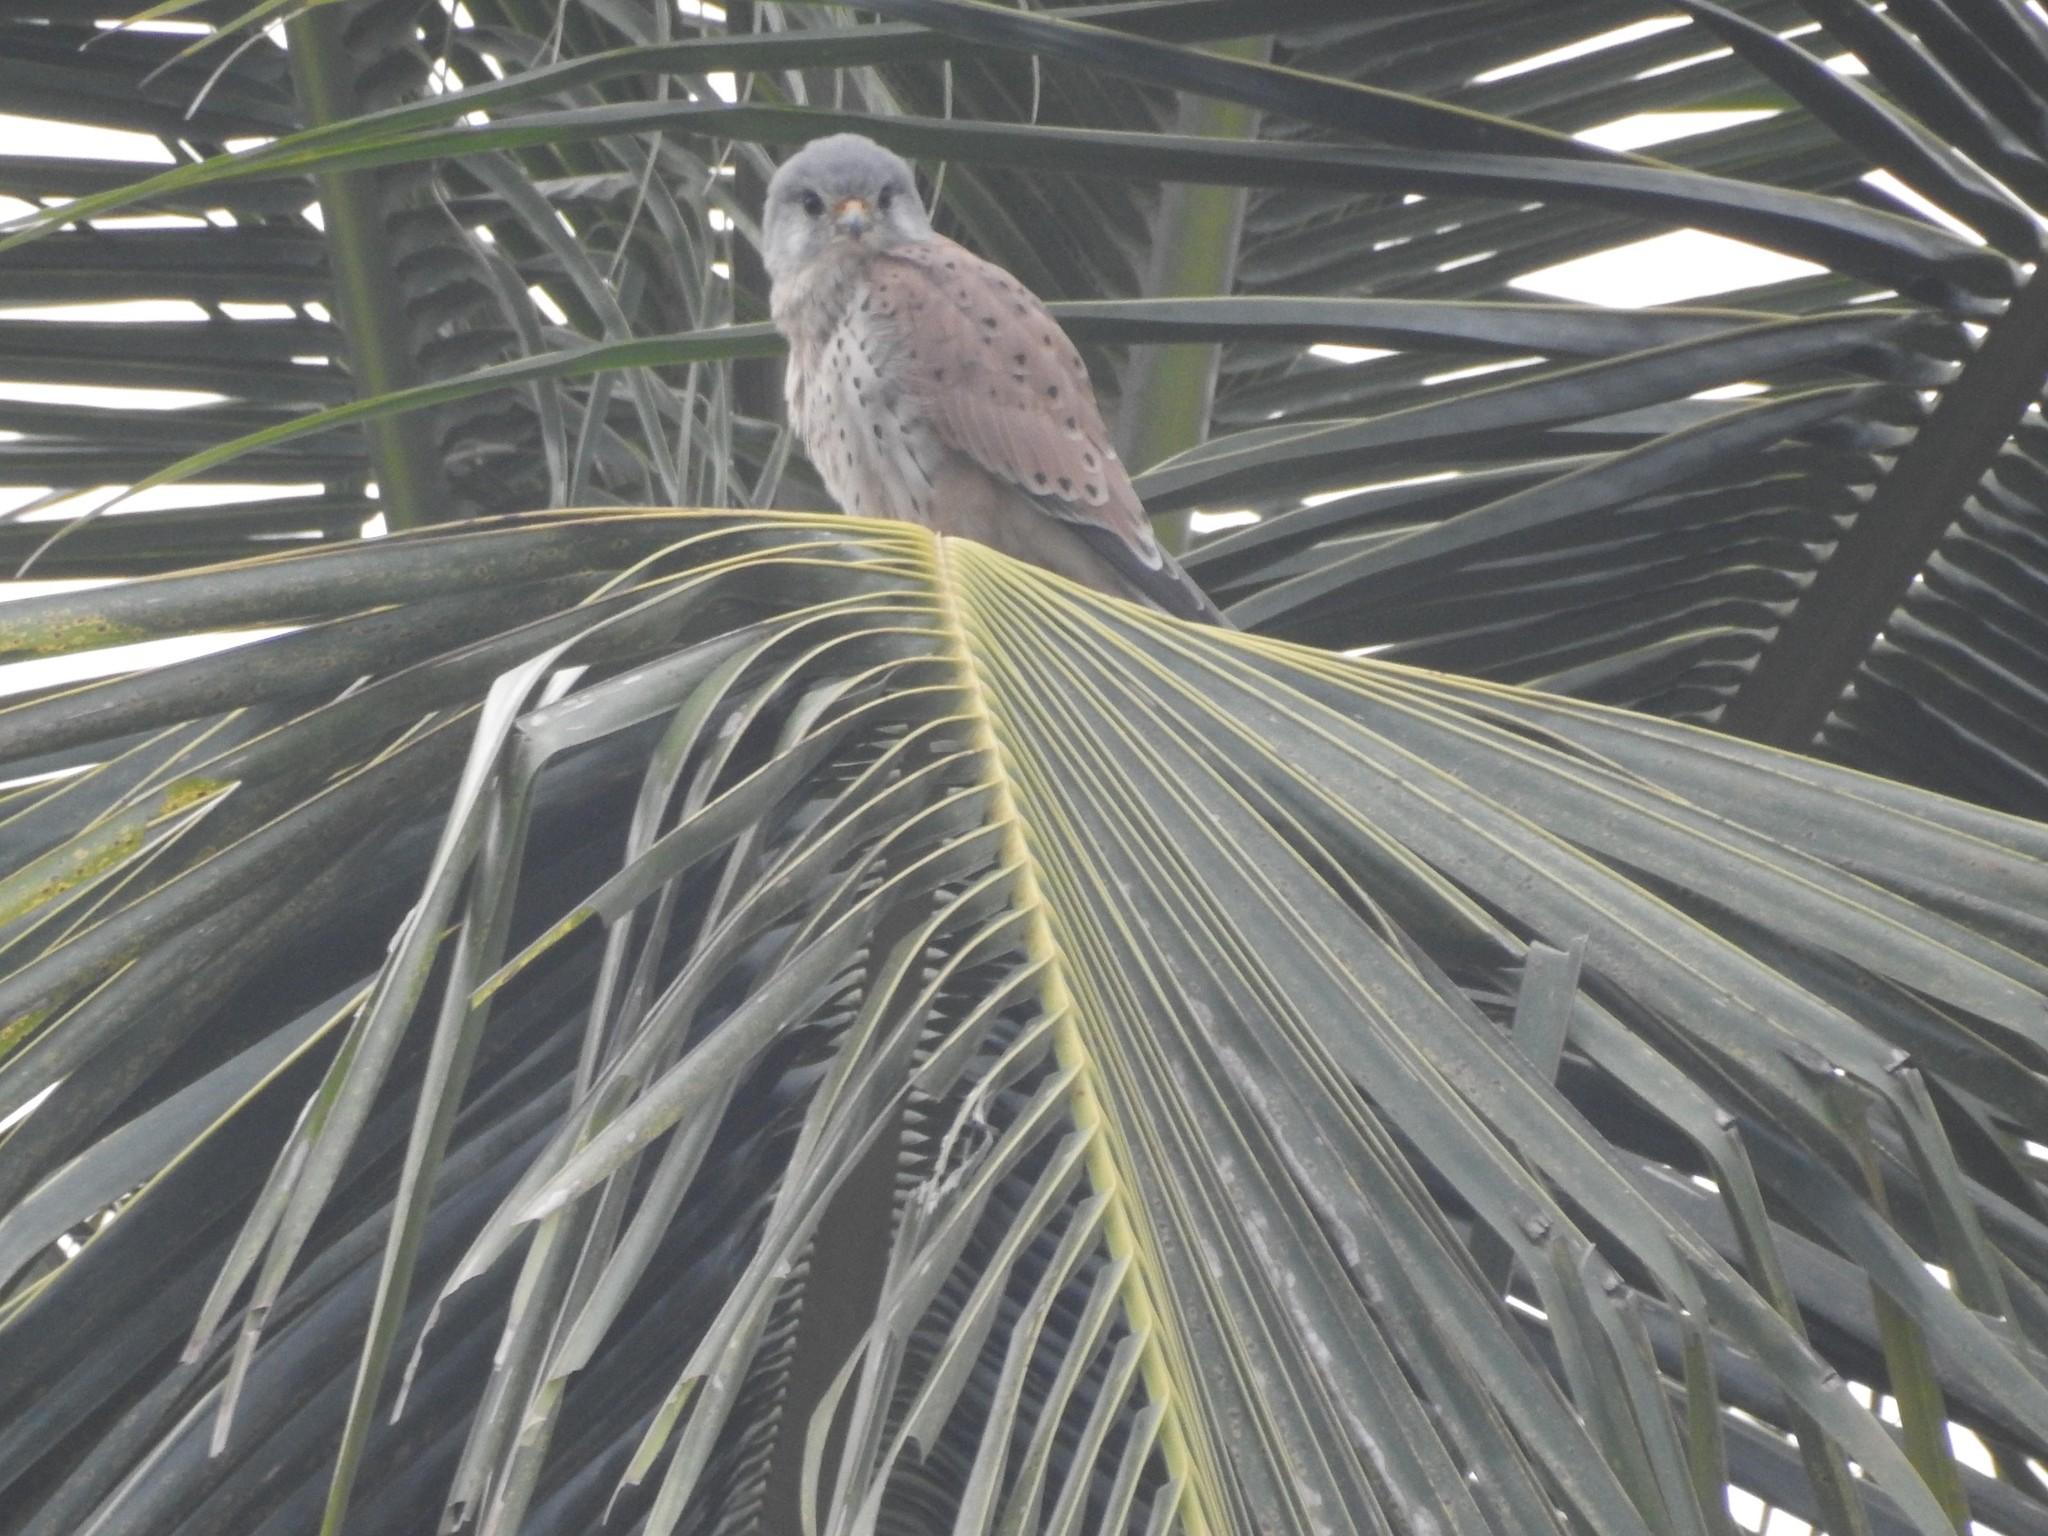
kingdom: Animalia
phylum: Chordata
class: Aves
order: Falconiformes
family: Falconidae
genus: Falco
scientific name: Falco tinnunculus
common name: Common kestrel
